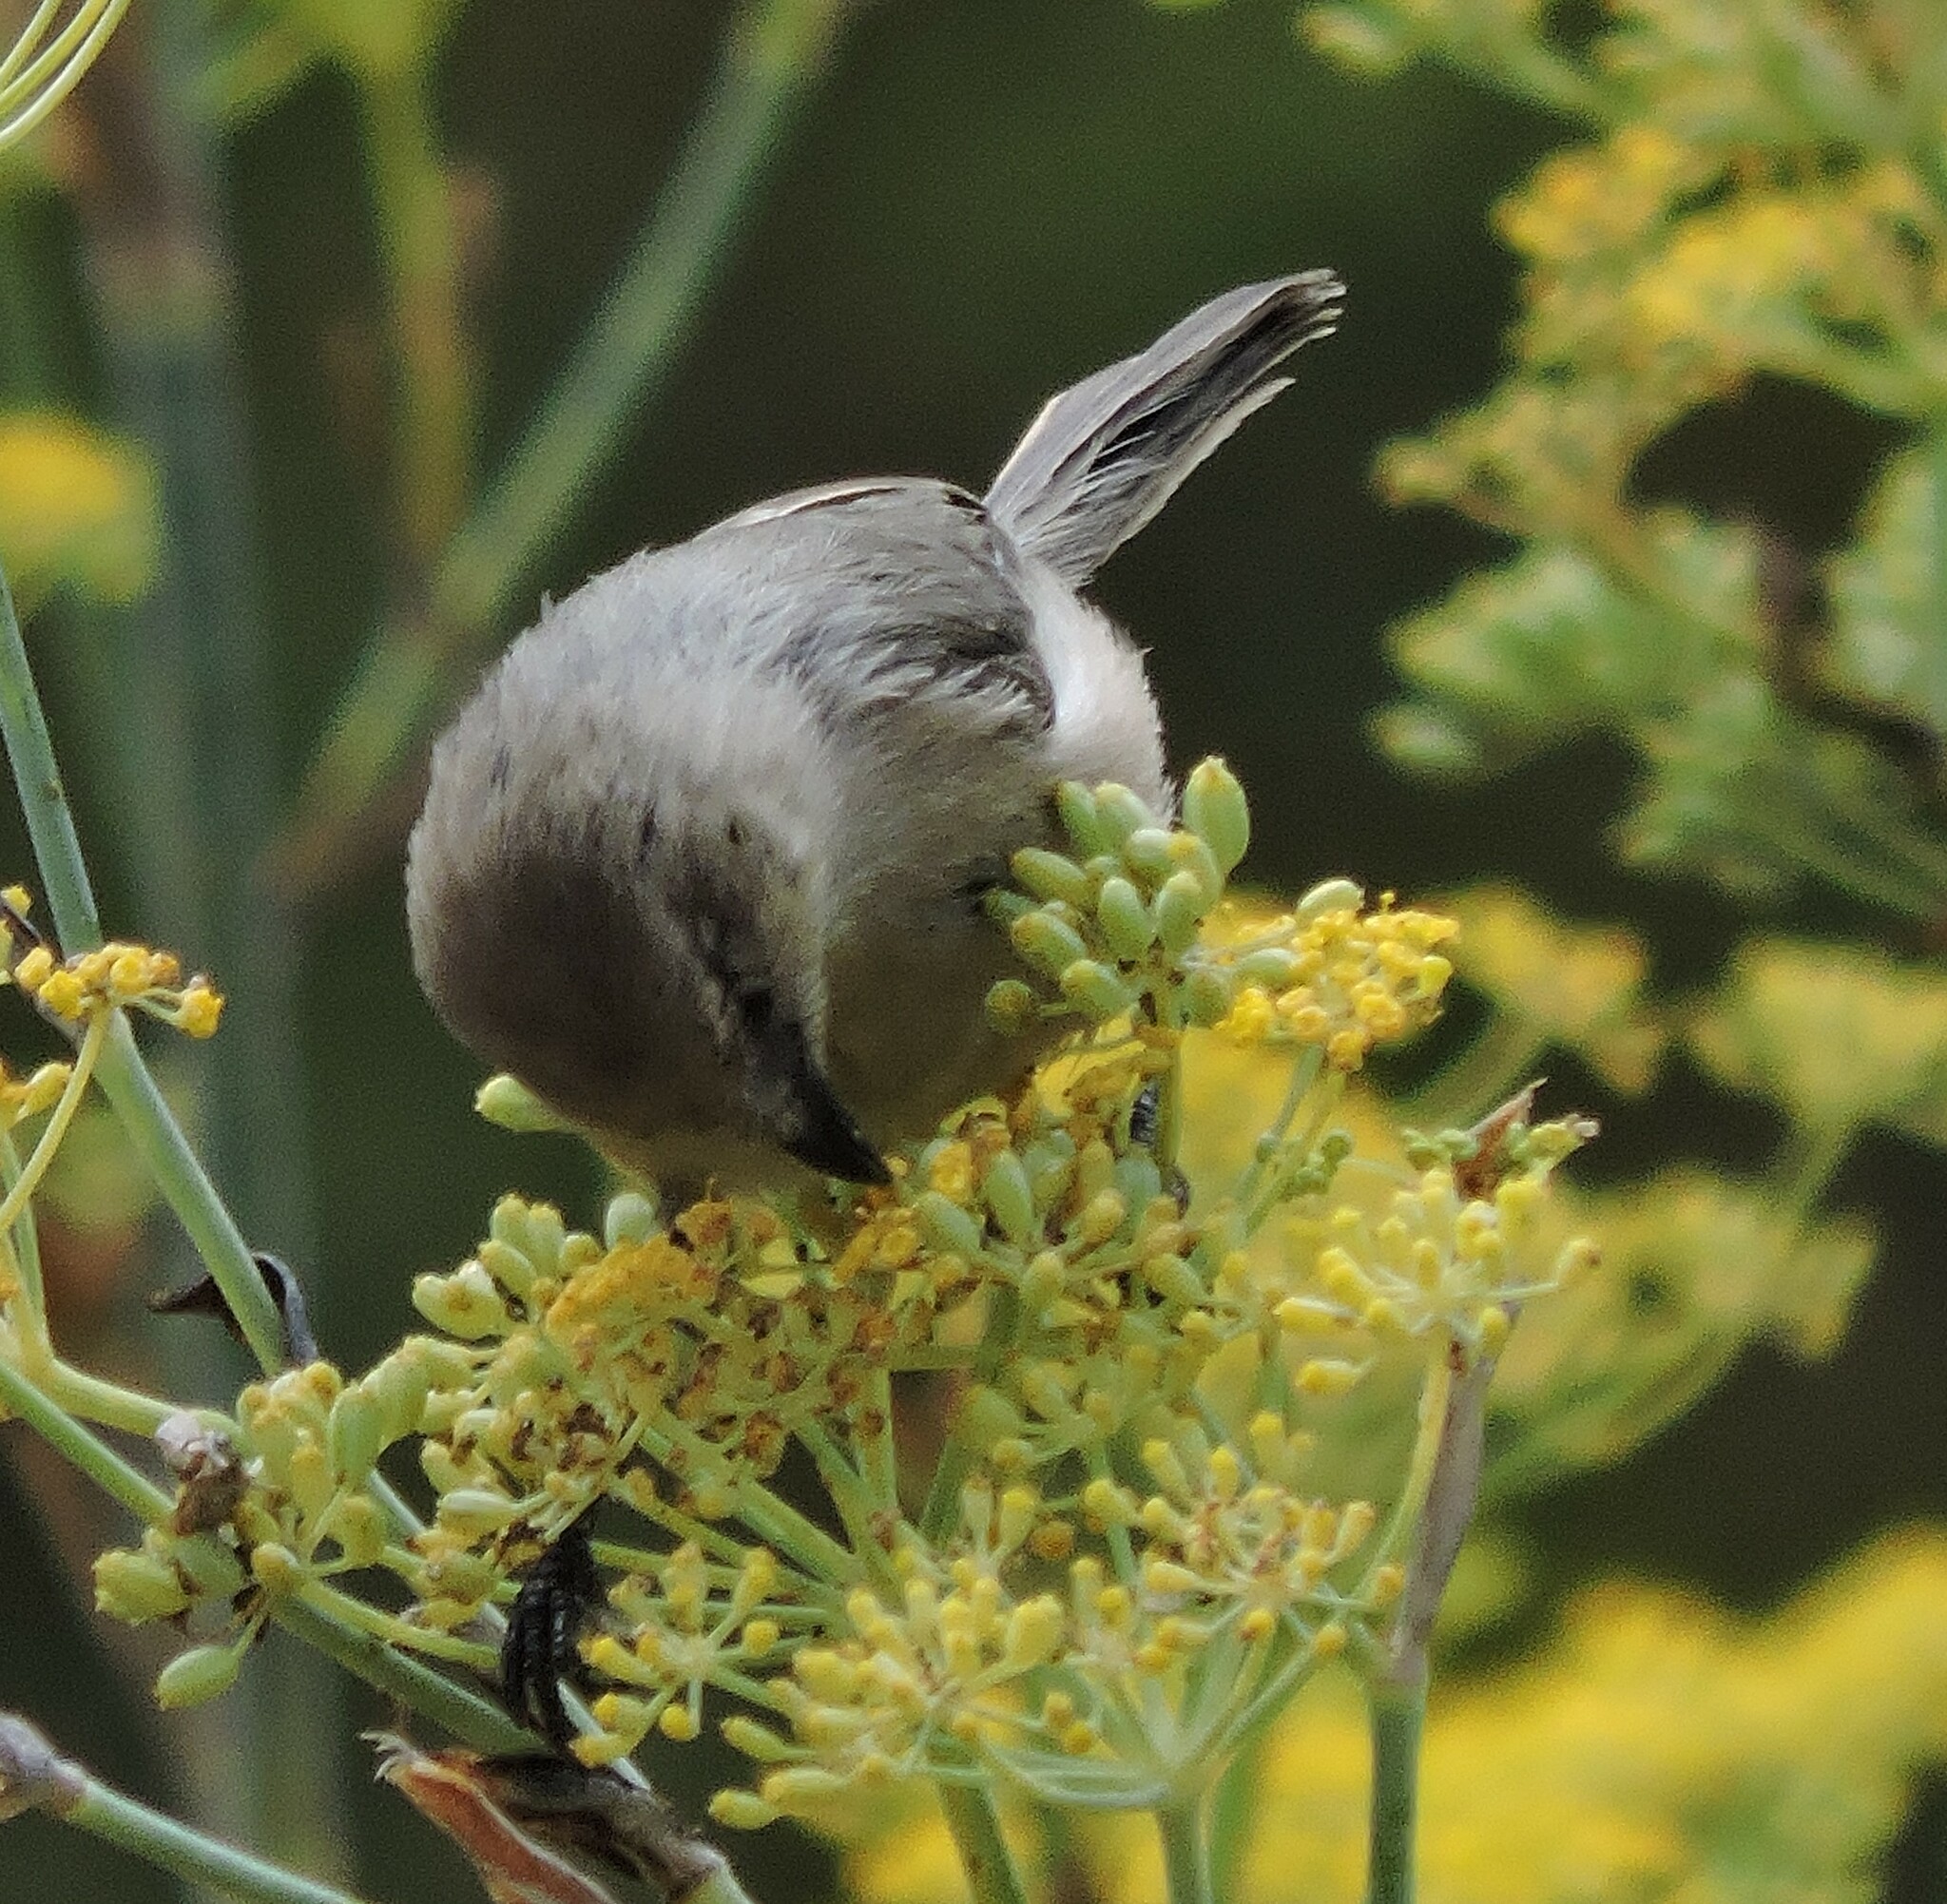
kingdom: Animalia
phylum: Chordata
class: Aves
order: Passeriformes
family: Aegithalidae
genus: Psaltriparus
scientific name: Psaltriparus minimus
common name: American bushtit
